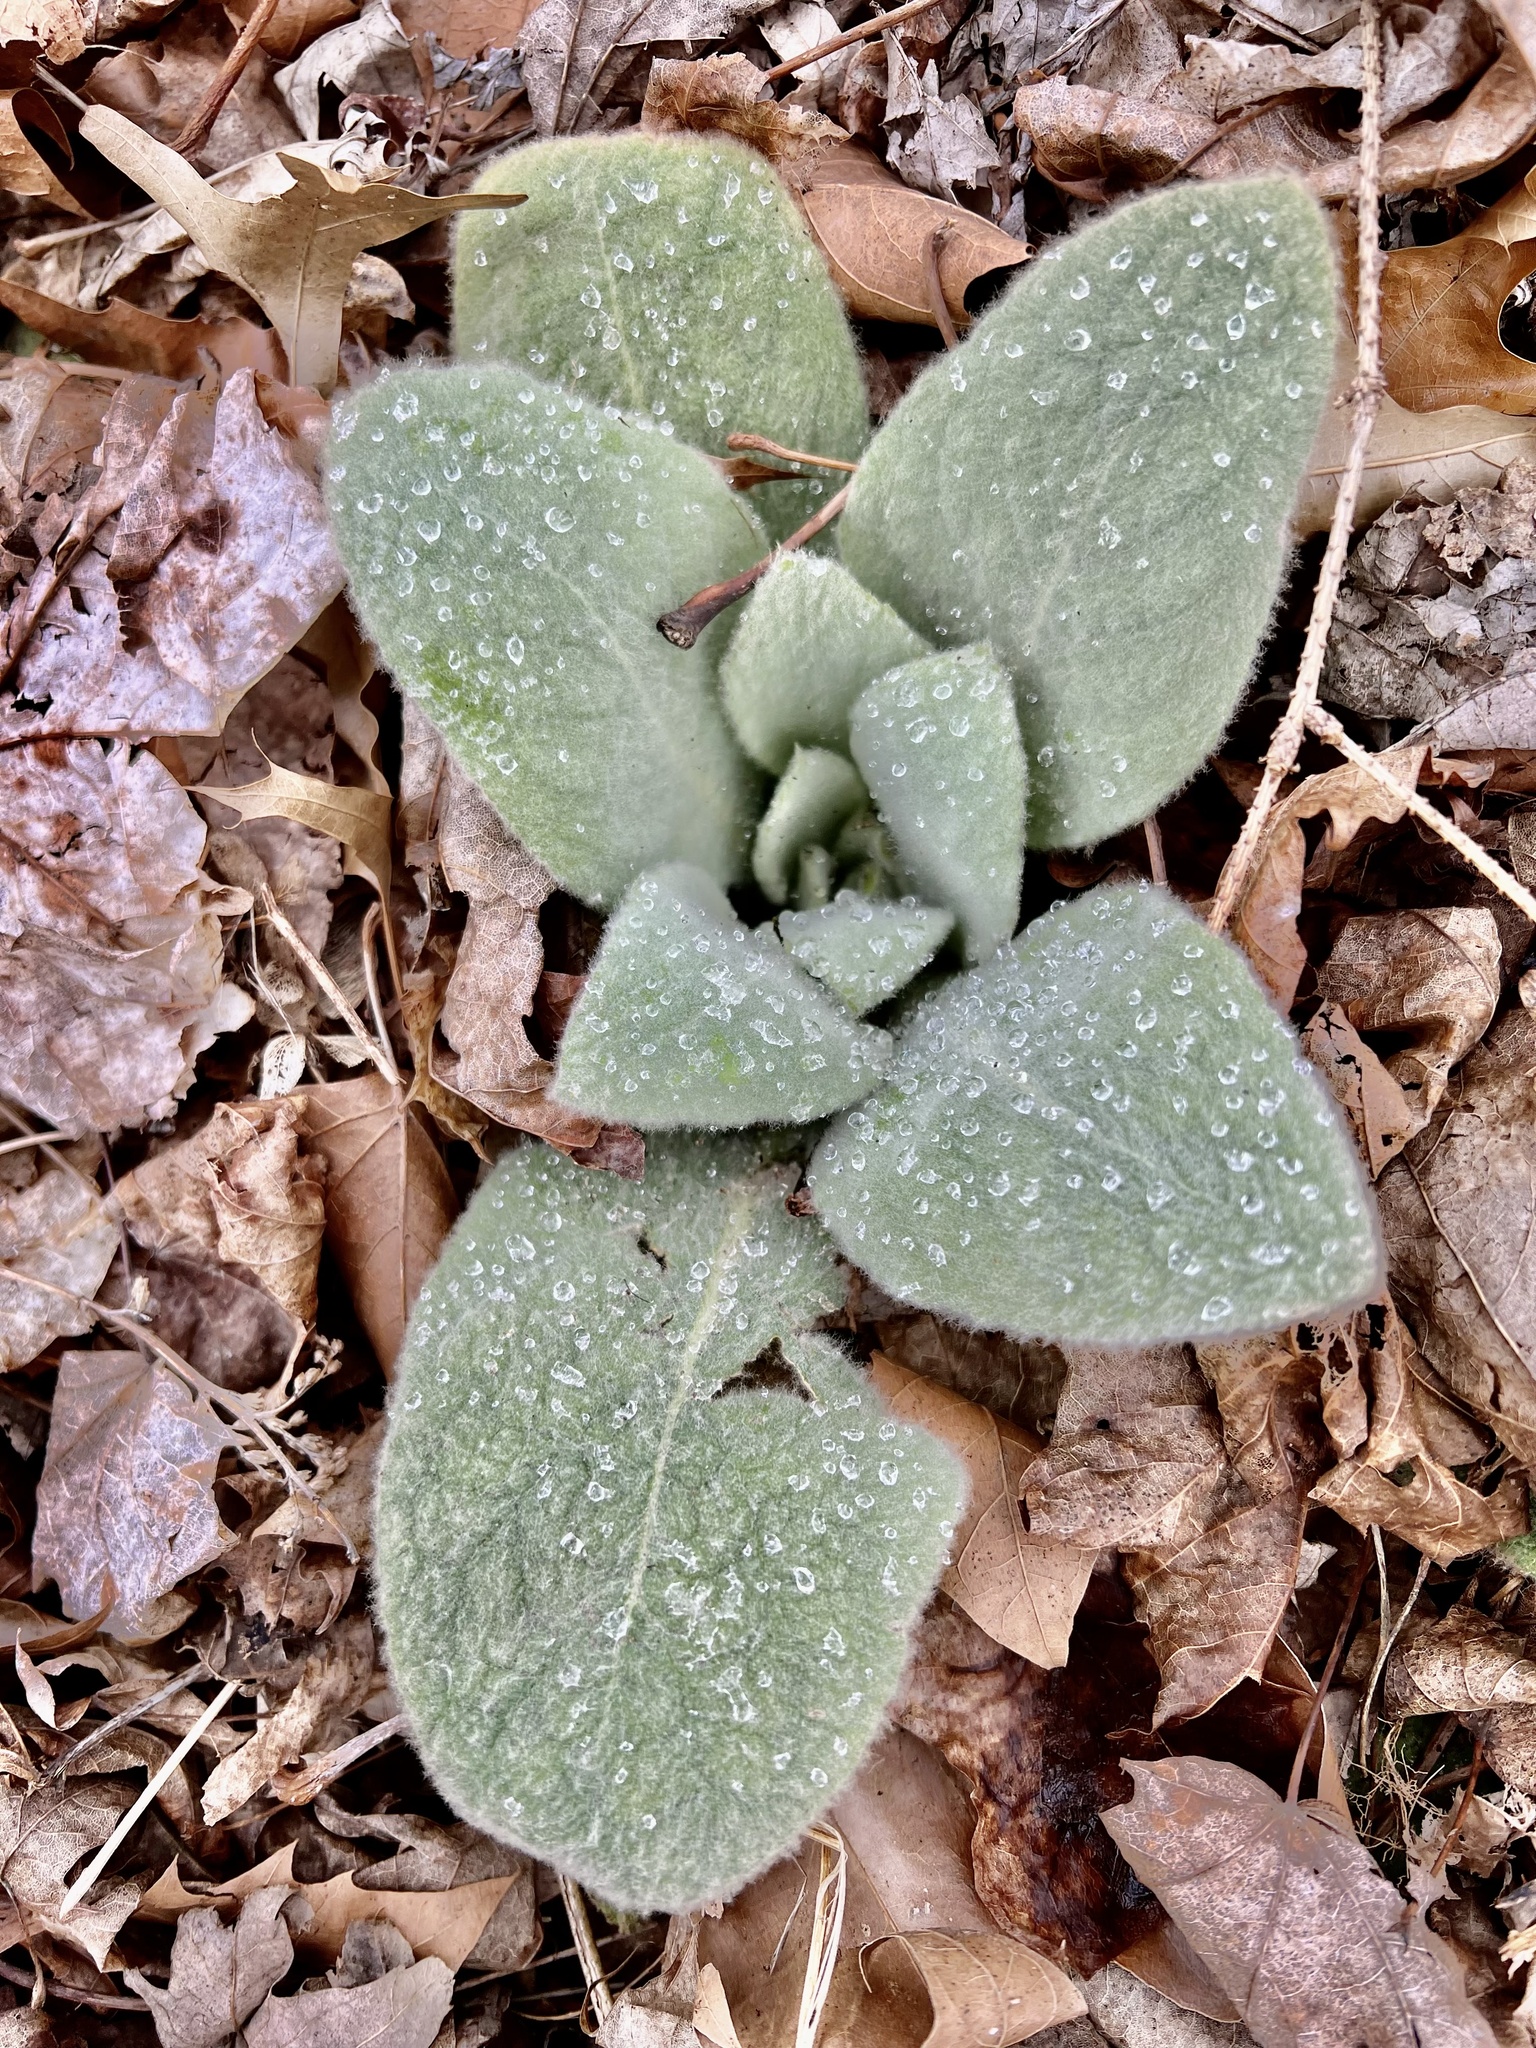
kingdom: Plantae
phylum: Tracheophyta
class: Magnoliopsida
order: Lamiales
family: Scrophulariaceae
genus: Verbascum
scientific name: Verbascum thapsus
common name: Common mullein
